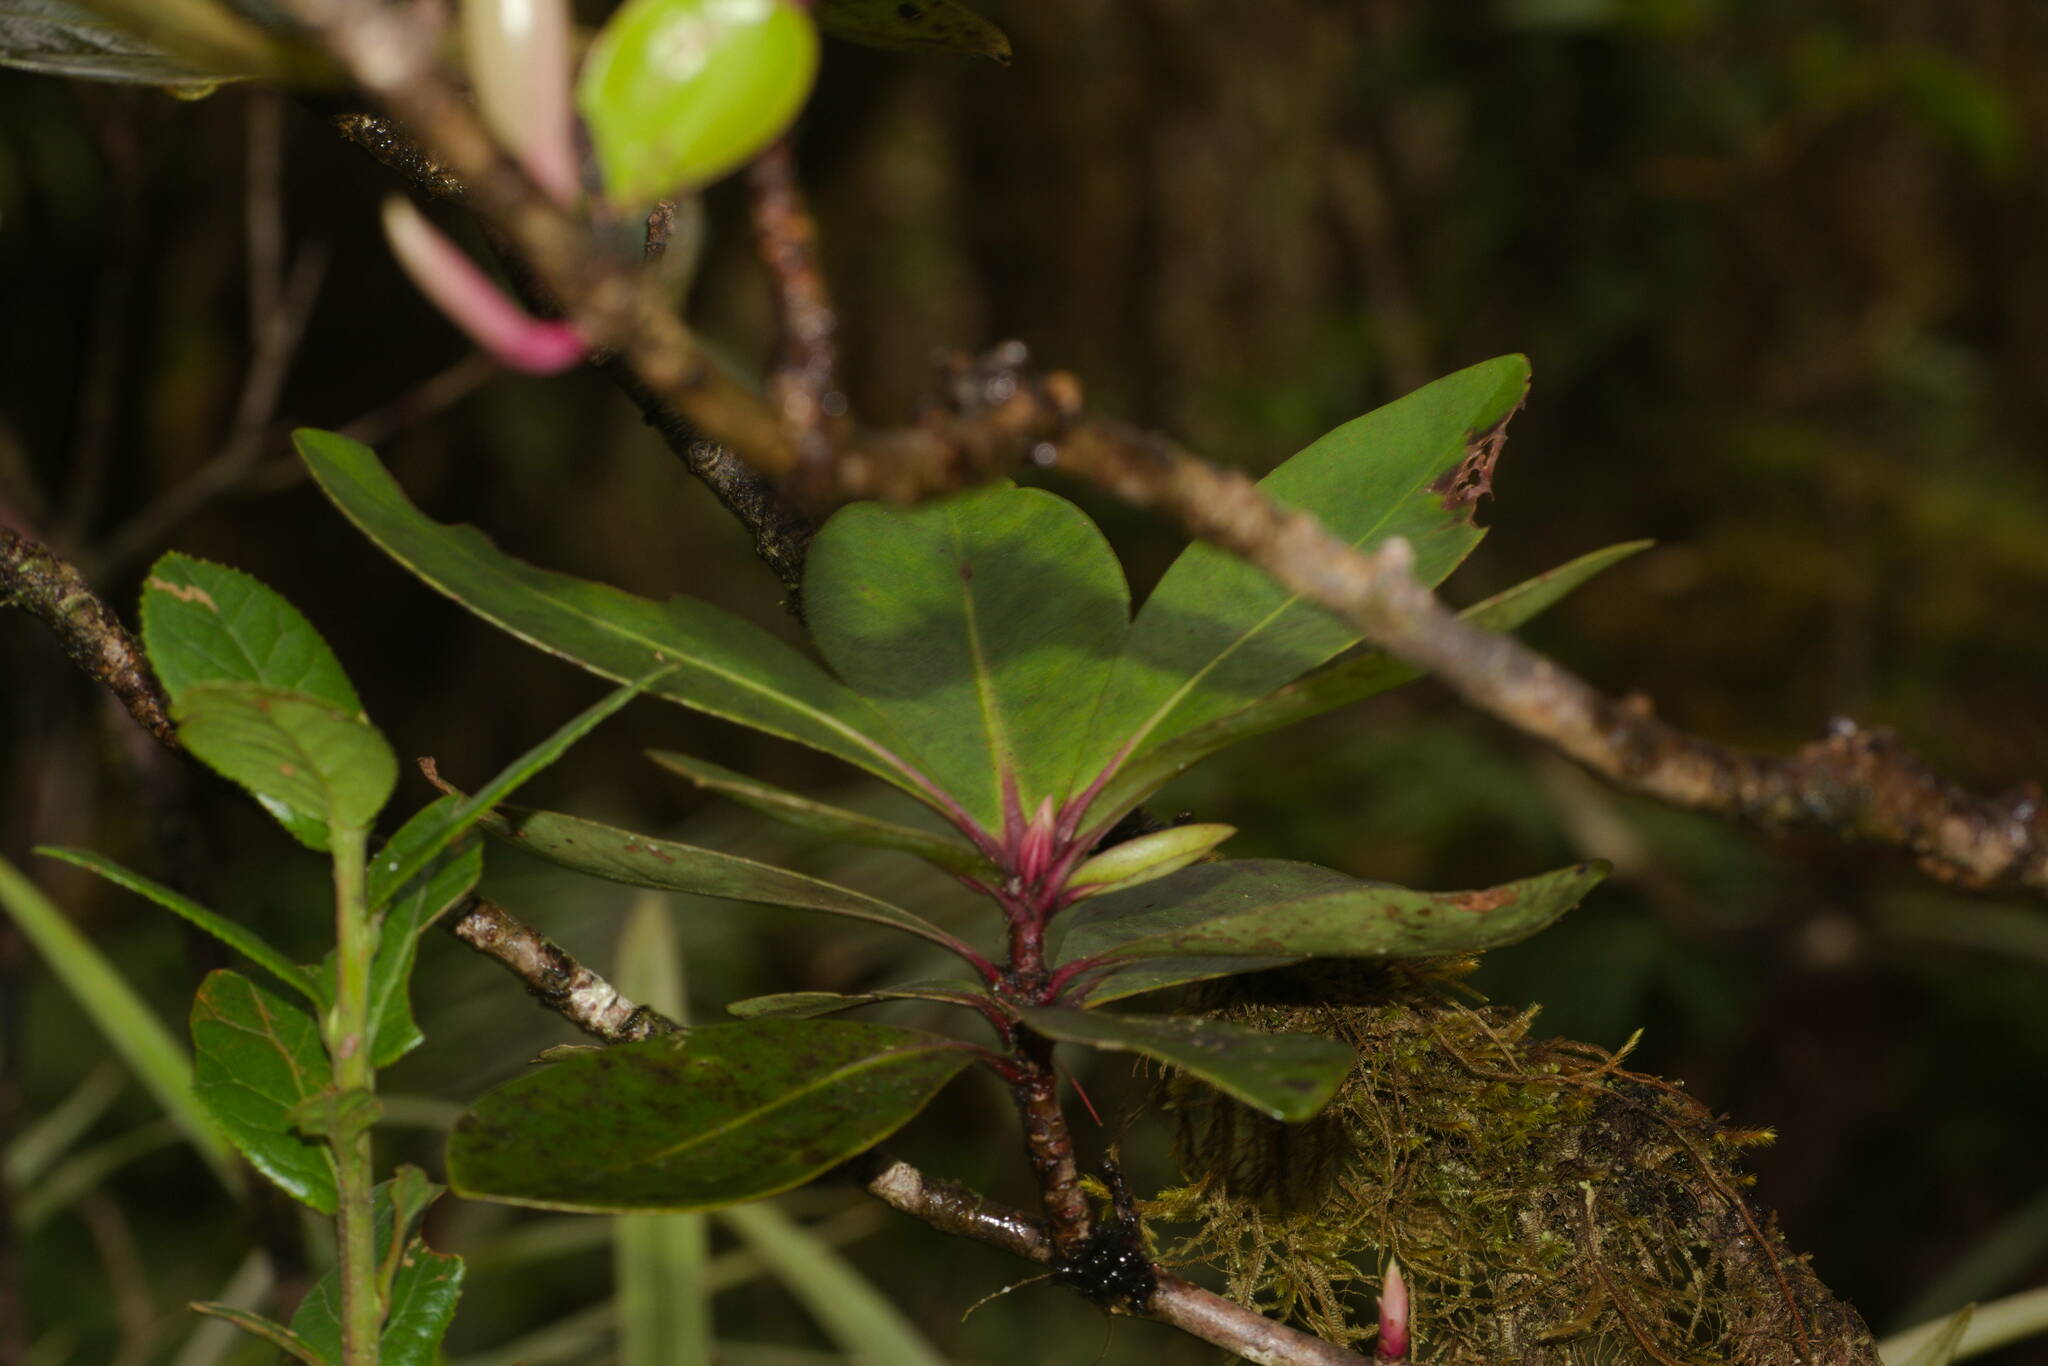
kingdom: Plantae
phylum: Tracheophyta
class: Magnoliopsida
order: Ericales
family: Primulaceae
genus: Myrsine
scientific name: Myrsine lessertiana
